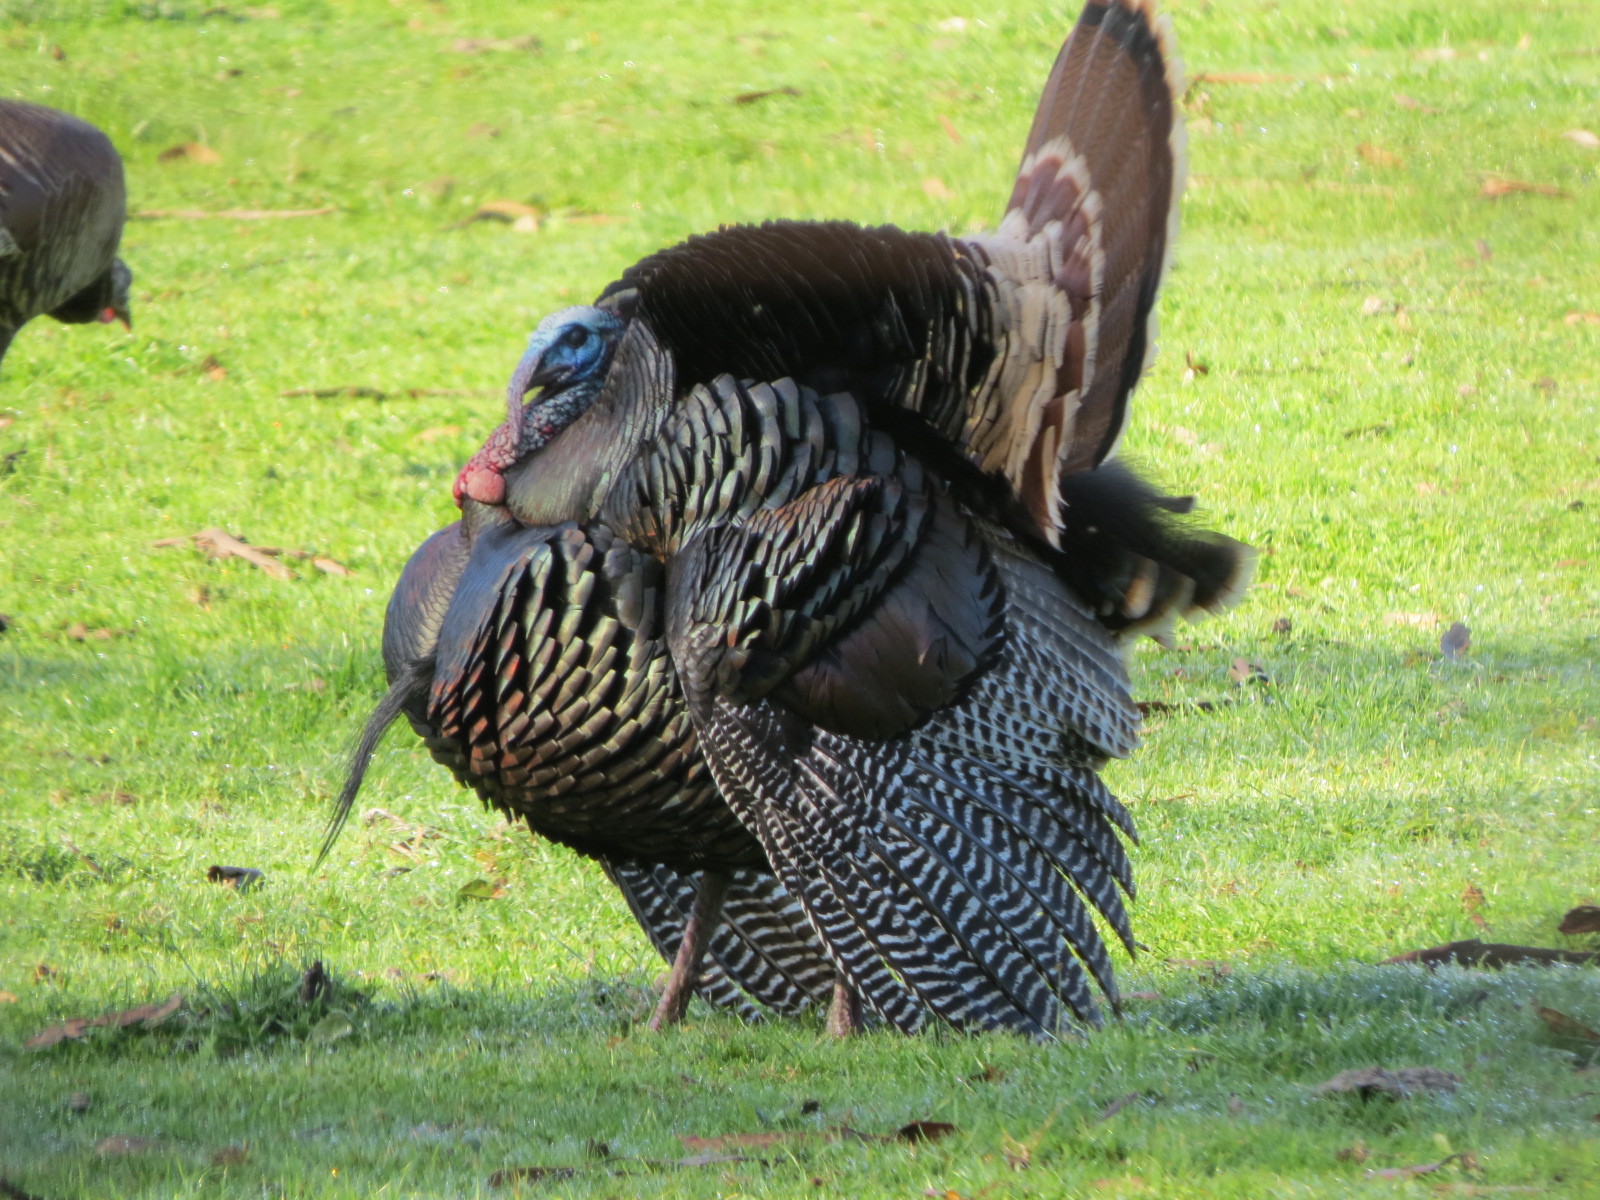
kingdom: Animalia
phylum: Chordata
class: Aves
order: Galliformes
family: Phasianidae
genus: Meleagris
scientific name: Meleagris gallopavo
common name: Wild turkey
